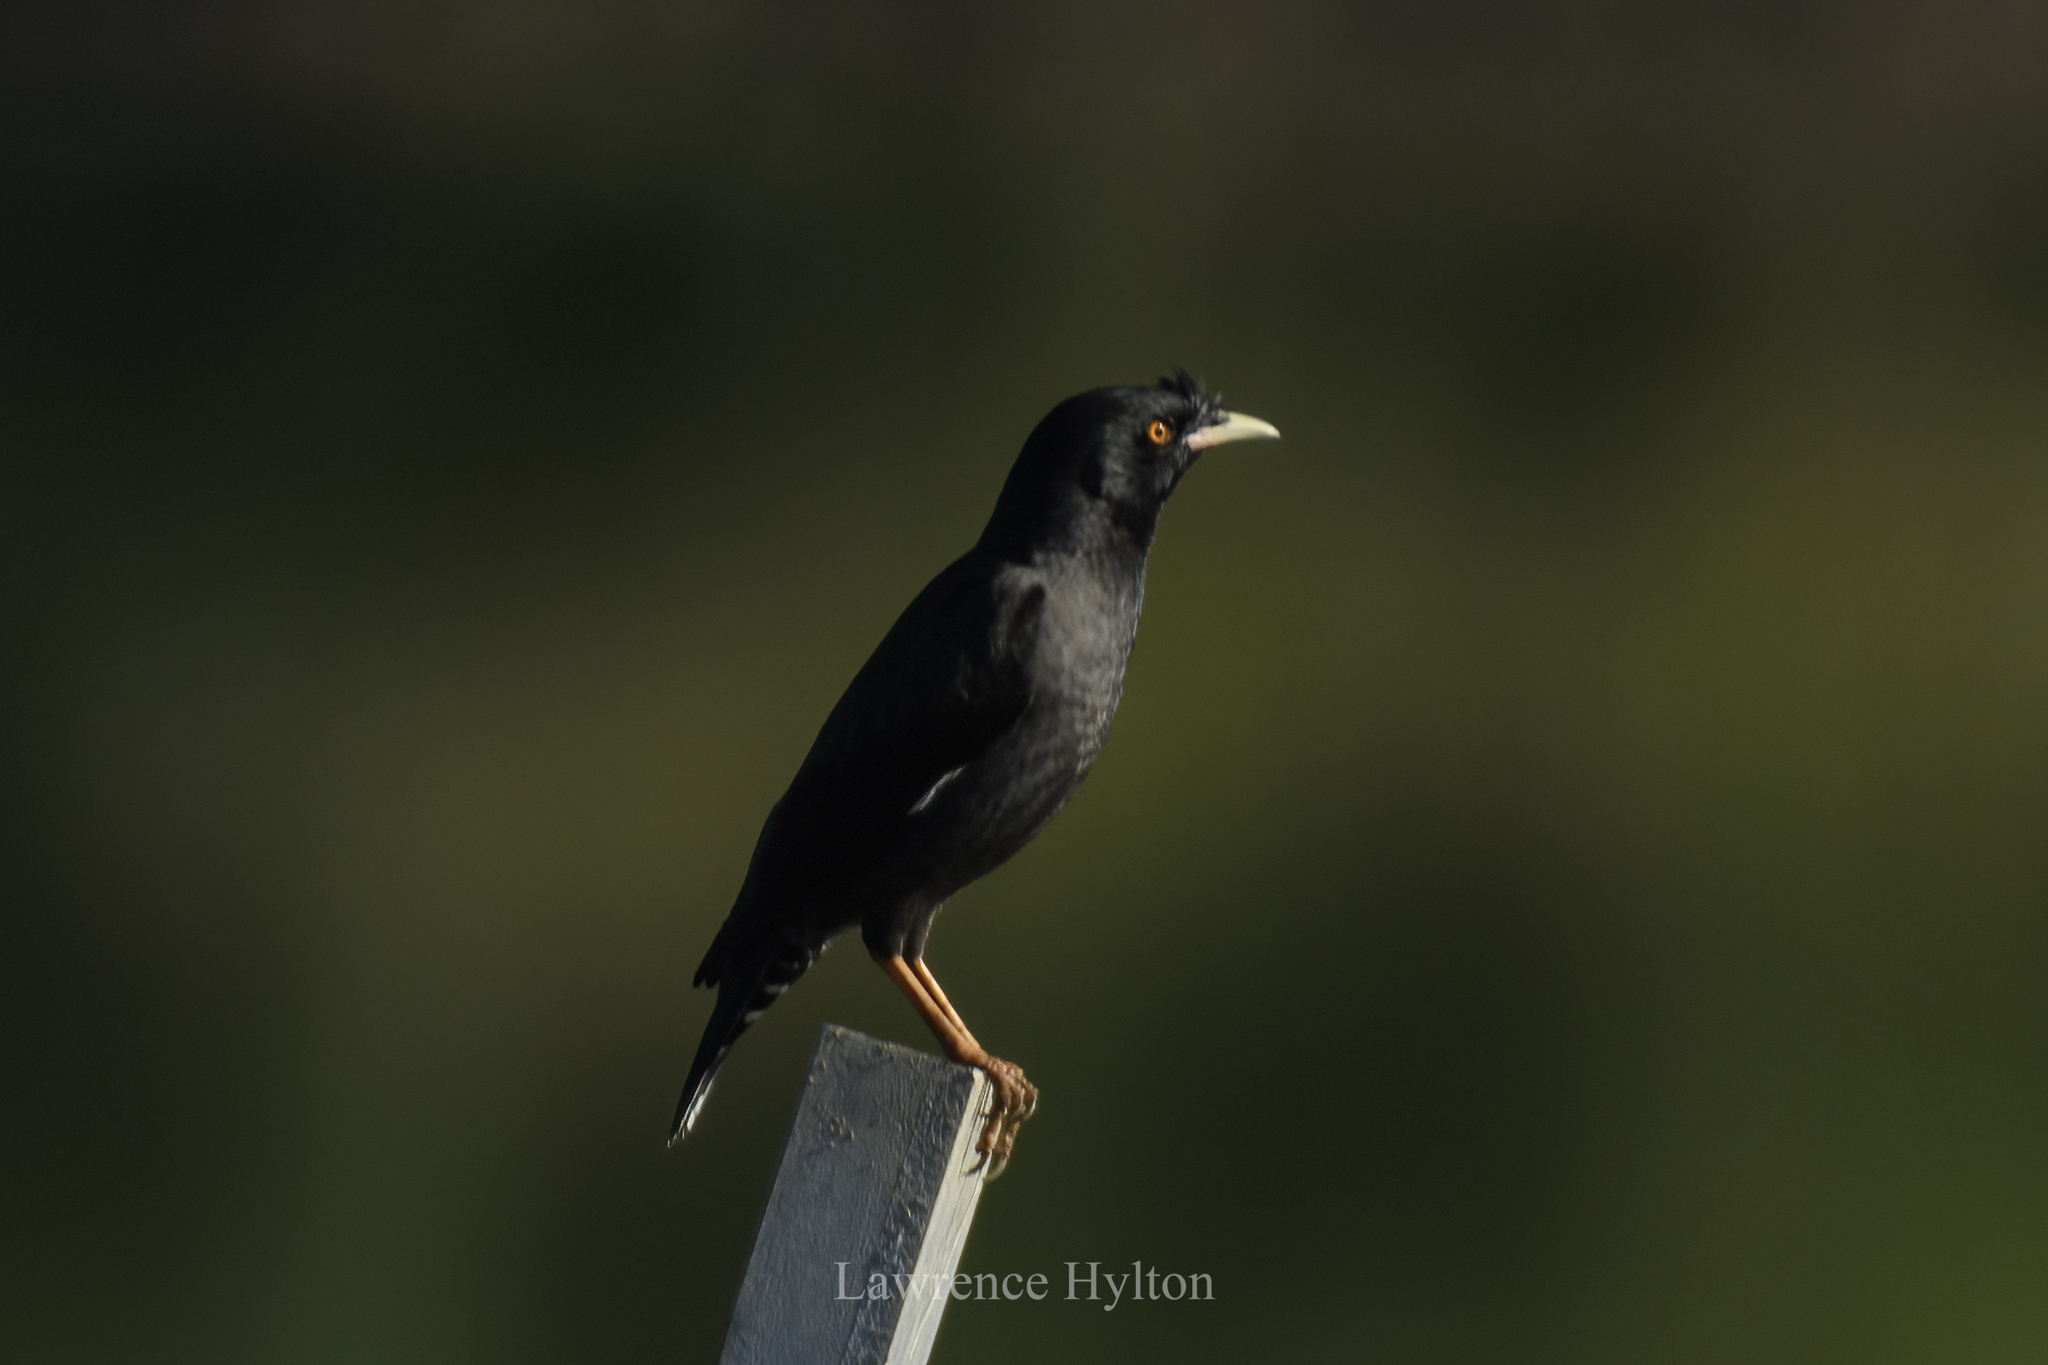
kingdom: Animalia
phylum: Chordata
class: Aves
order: Passeriformes
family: Sturnidae
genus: Acridotheres
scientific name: Acridotheres cristatellus
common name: Crested myna
